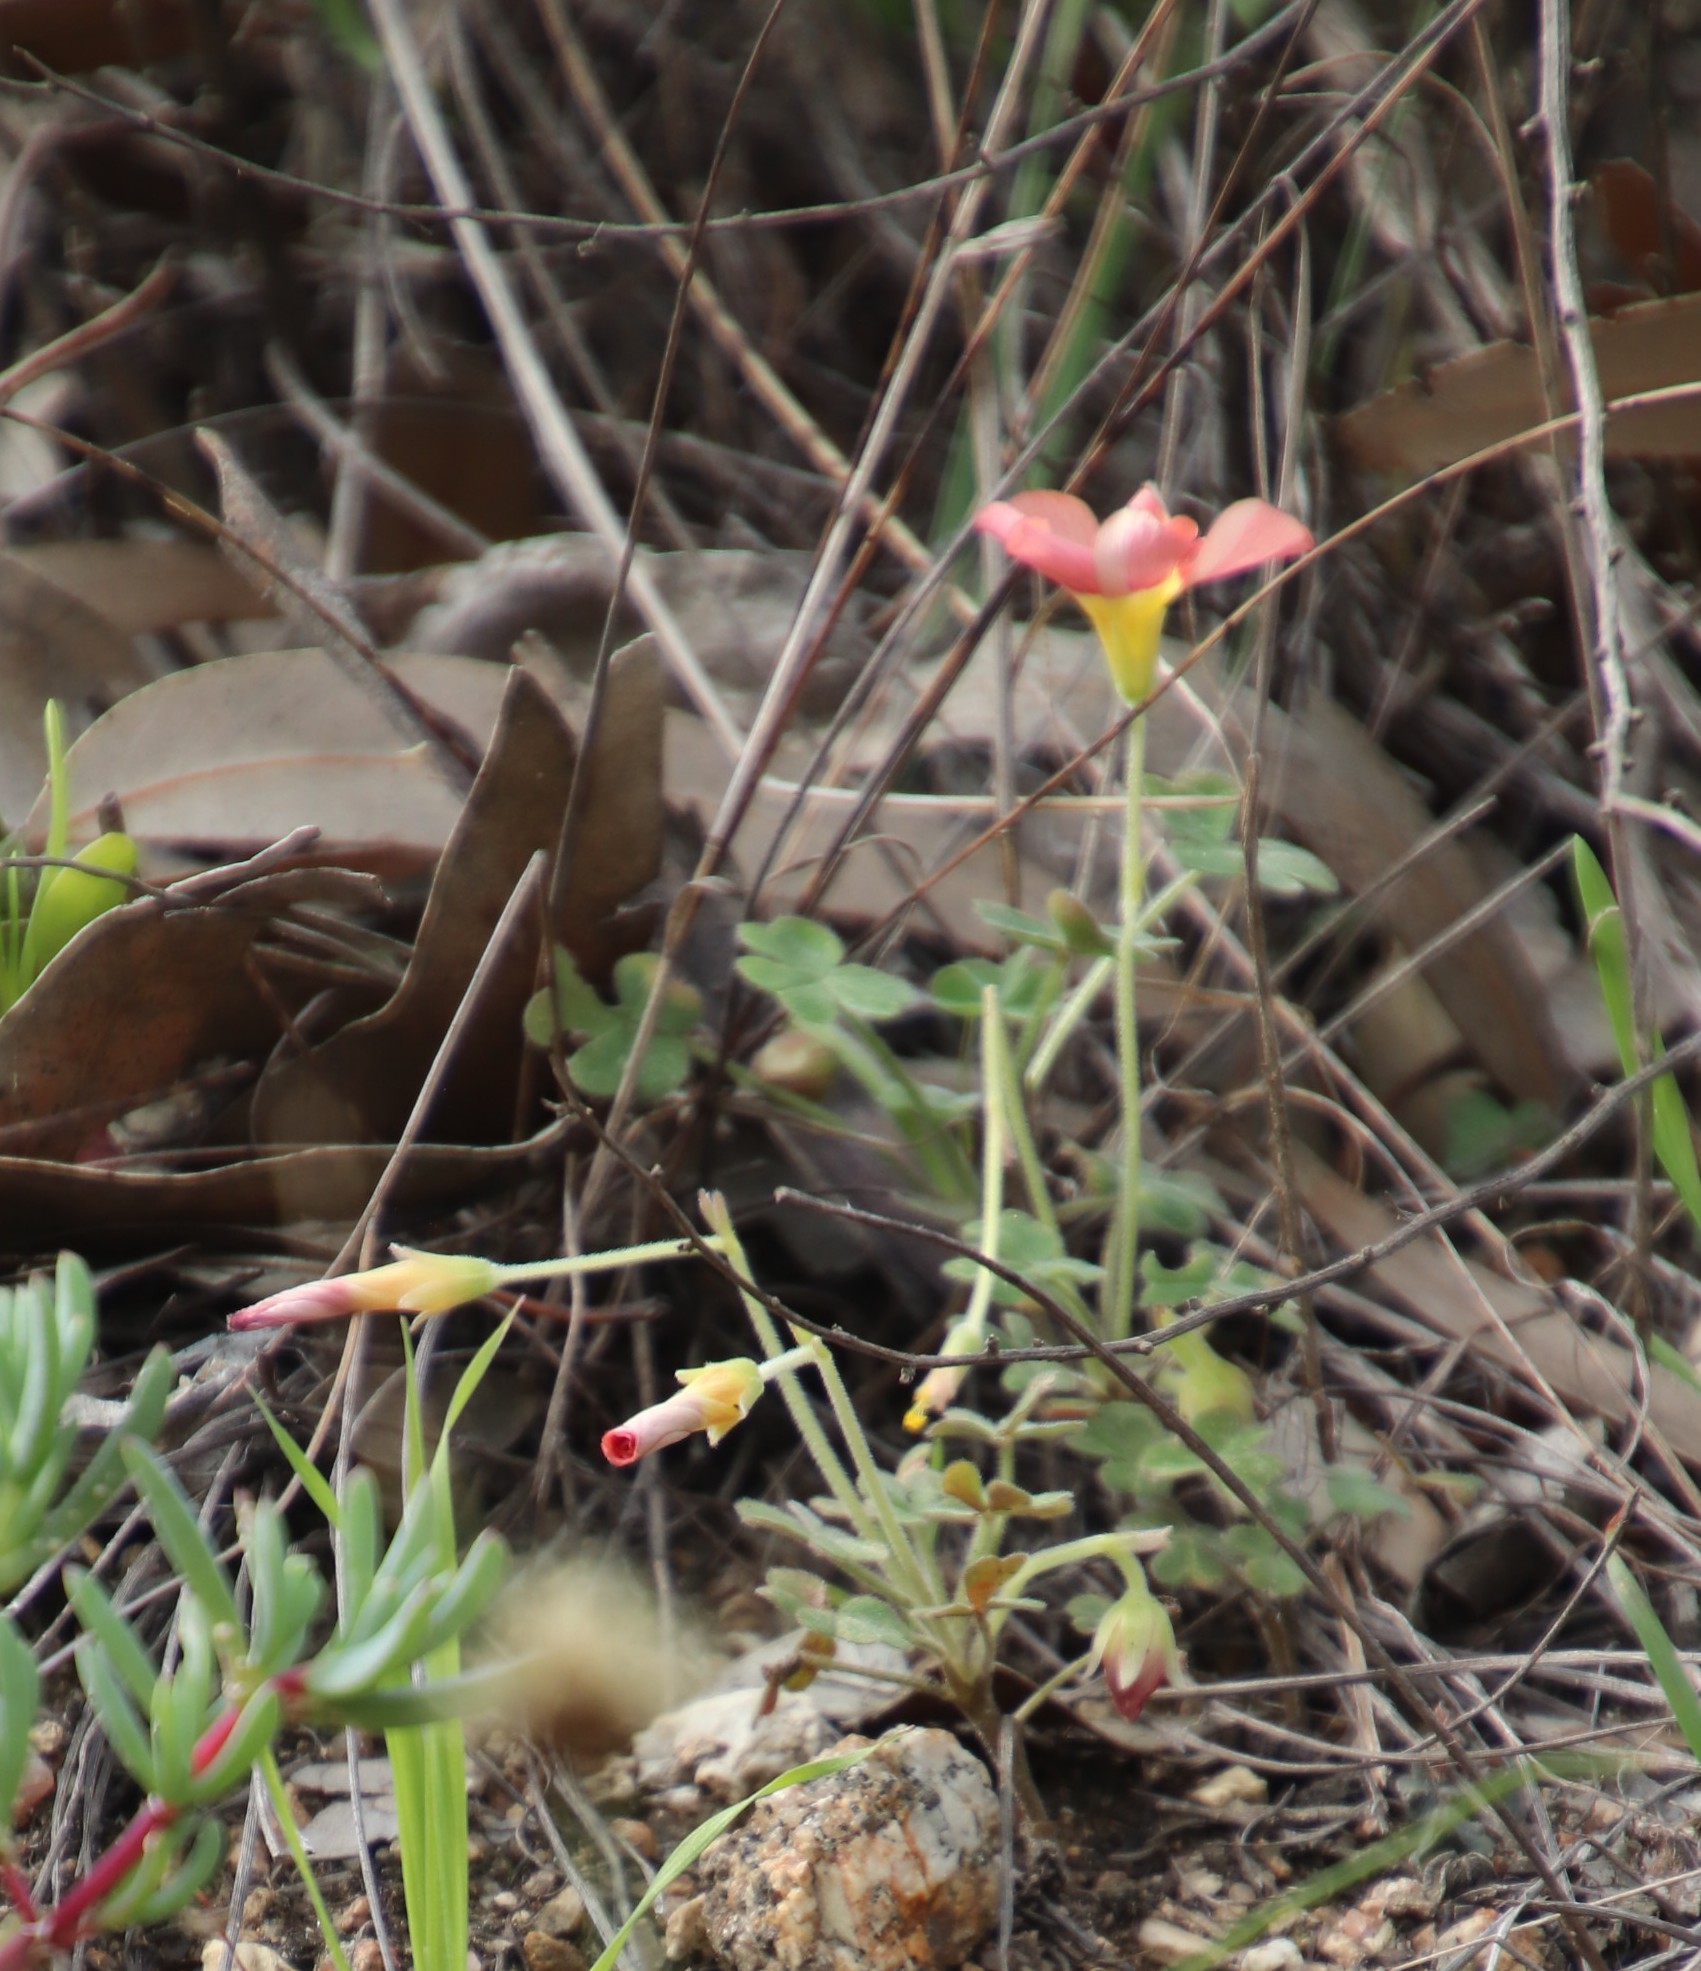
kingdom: Plantae
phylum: Tracheophyta
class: Magnoliopsida
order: Oxalidales
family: Oxalidaceae
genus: Oxalis
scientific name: Oxalis obtusa
